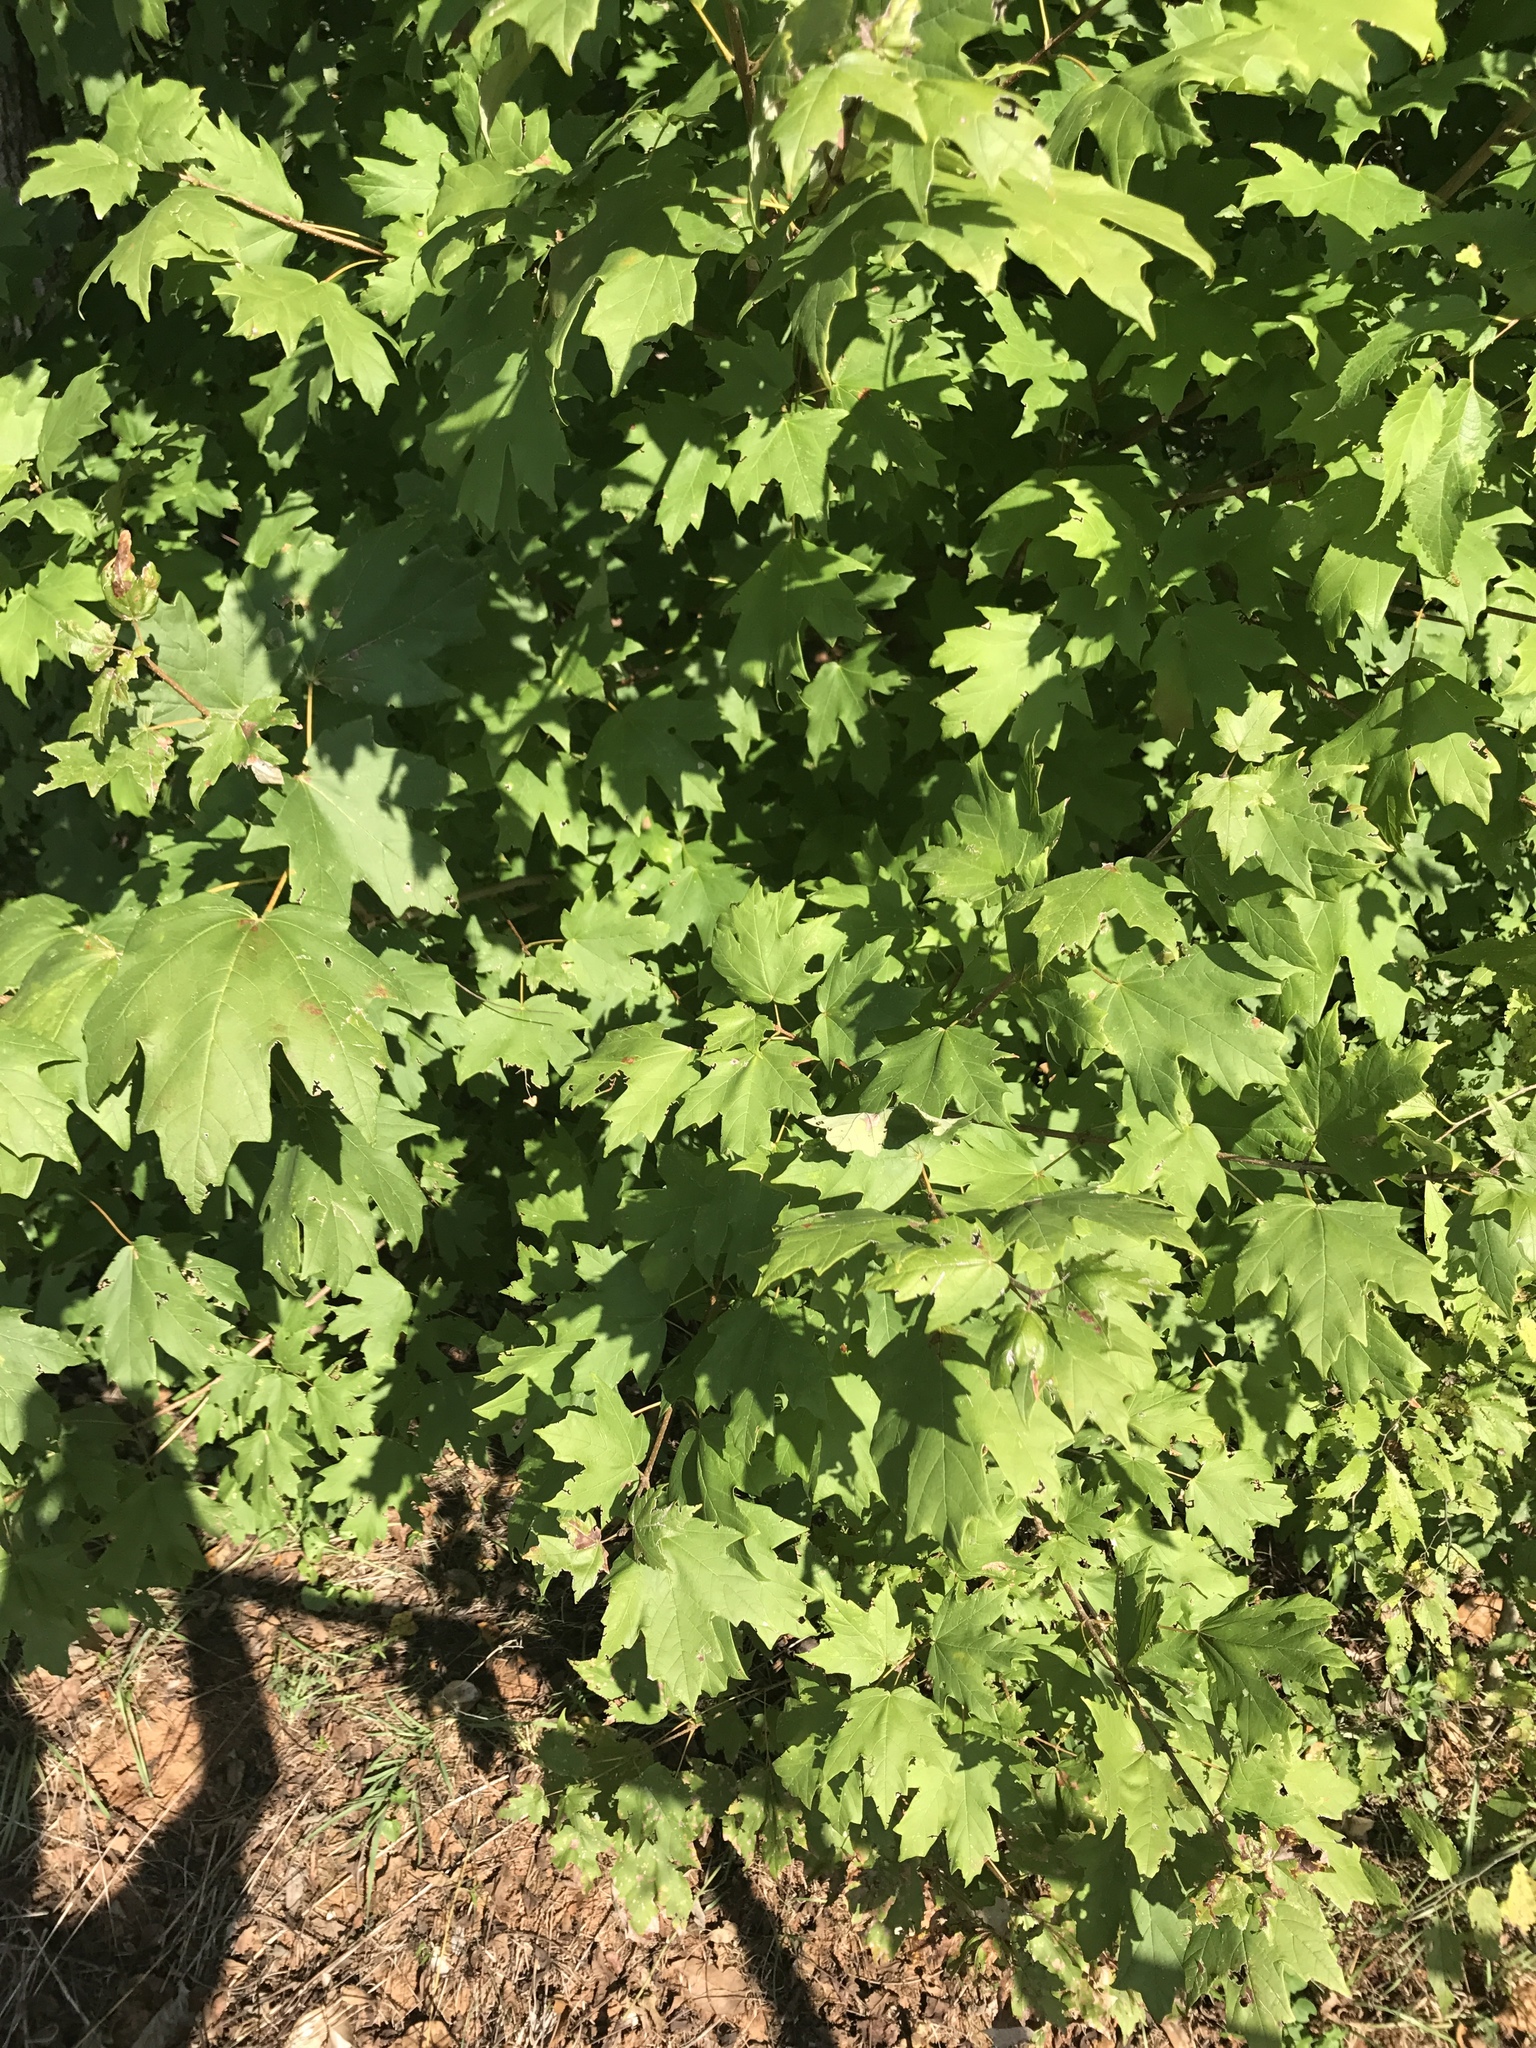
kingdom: Plantae
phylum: Tracheophyta
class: Magnoliopsida
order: Sapindales
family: Sapindaceae
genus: Acer
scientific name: Acer floridanum
